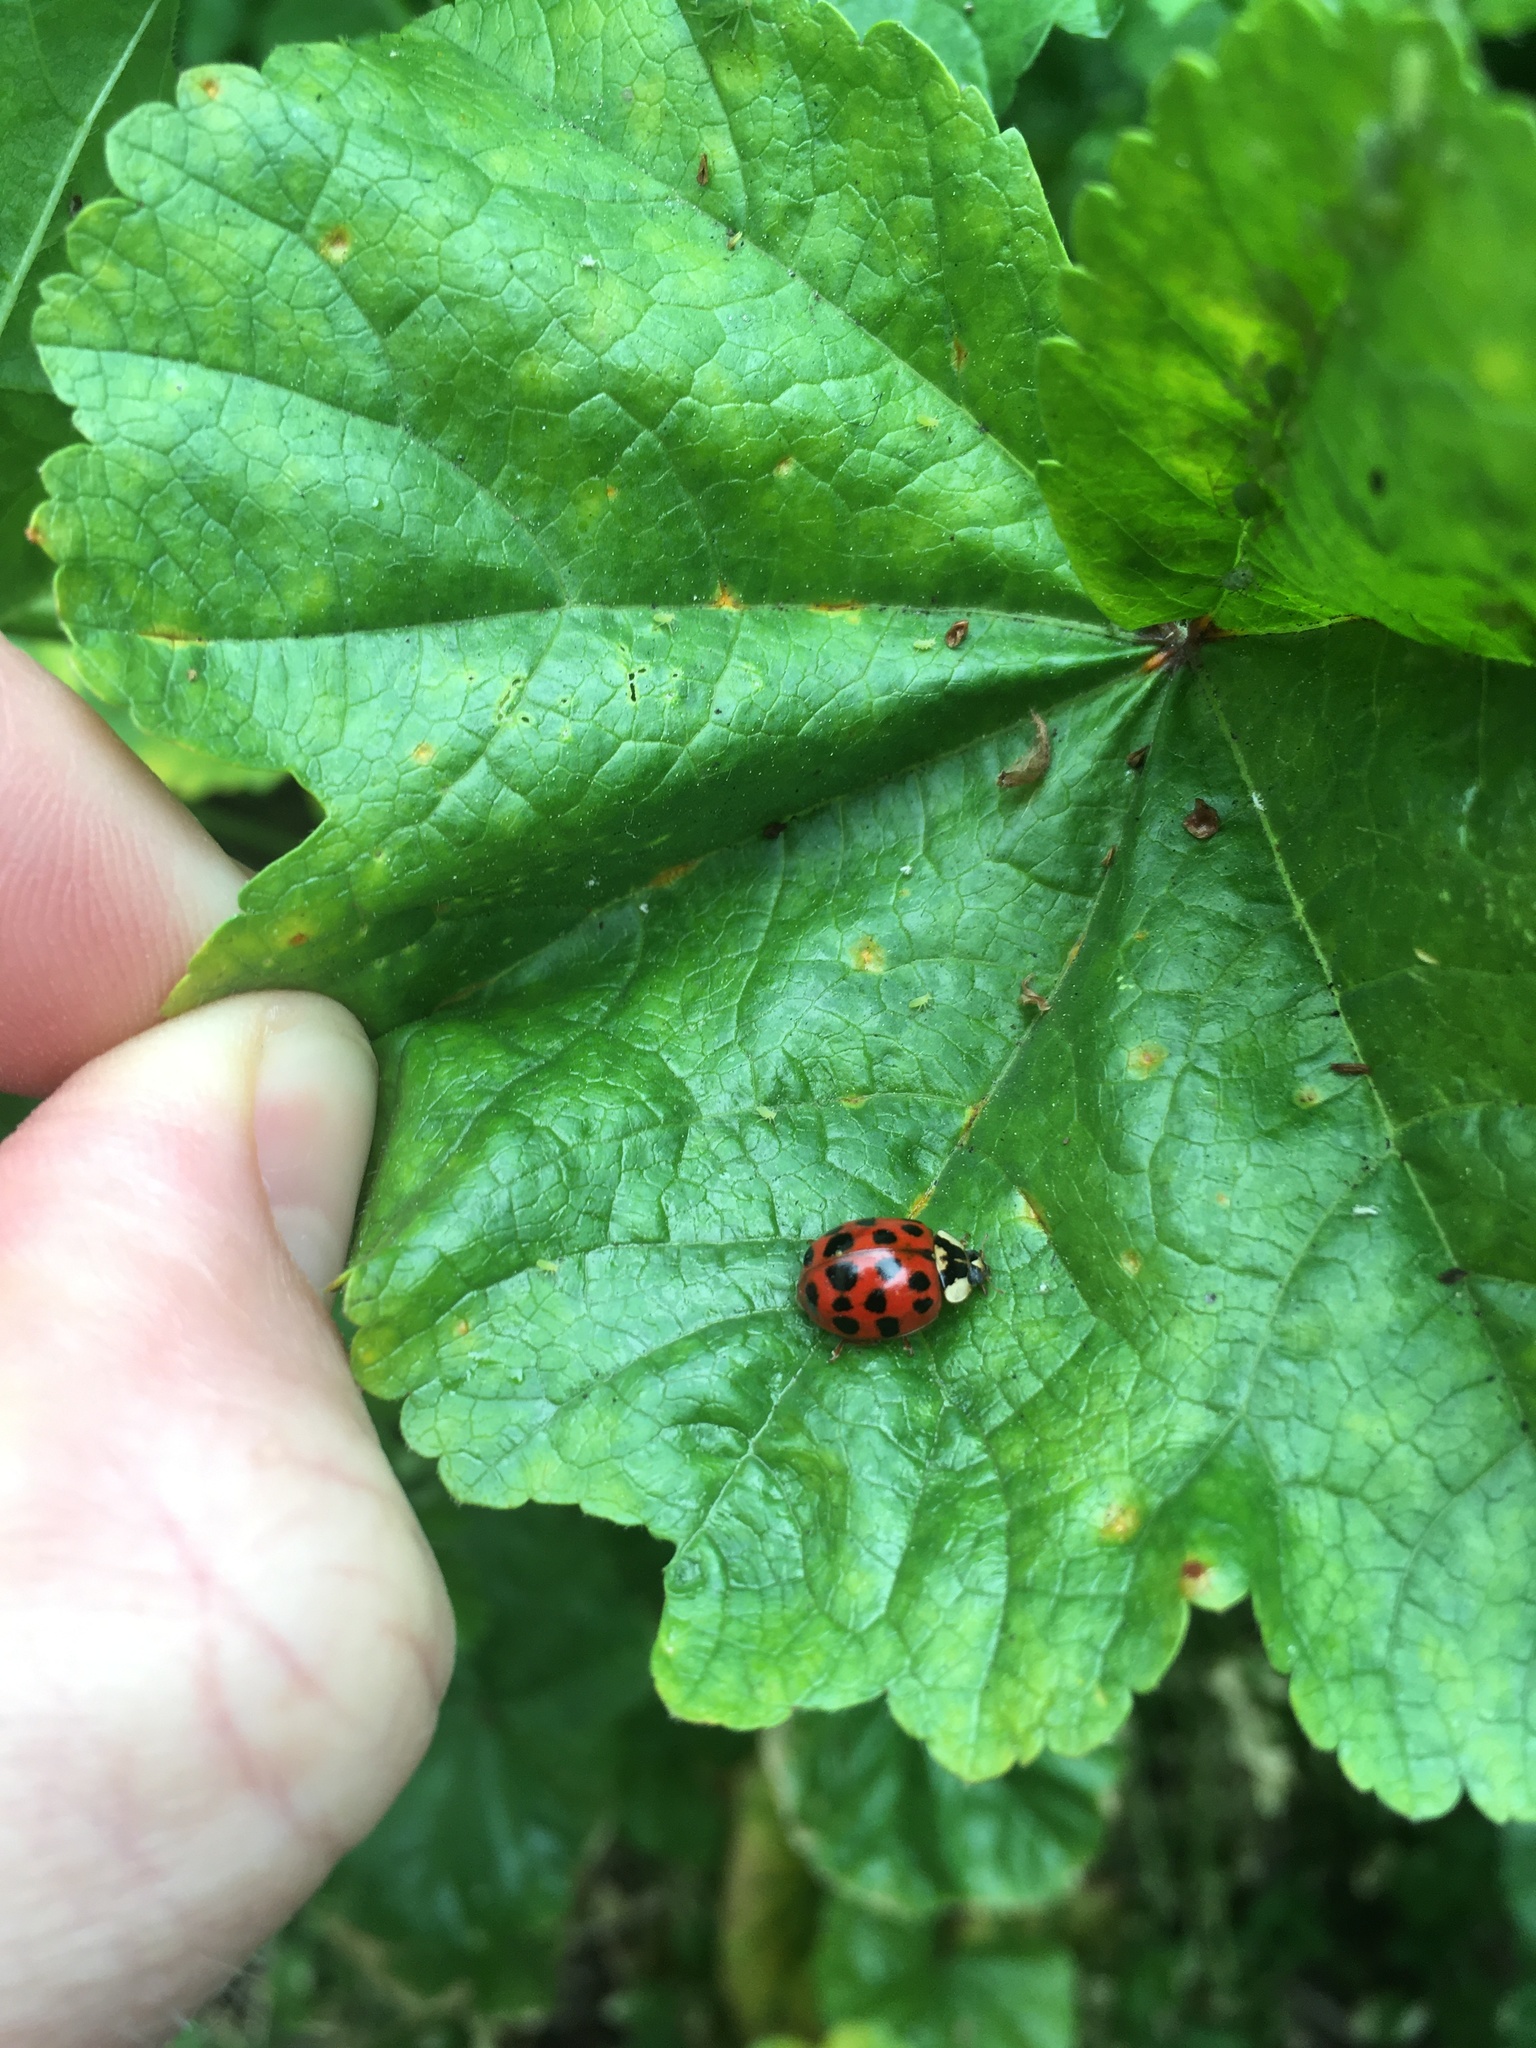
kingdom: Animalia
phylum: Arthropoda
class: Insecta
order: Coleoptera
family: Coccinellidae
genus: Harmonia
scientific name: Harmonia axyridis
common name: Harlequin ladybird
